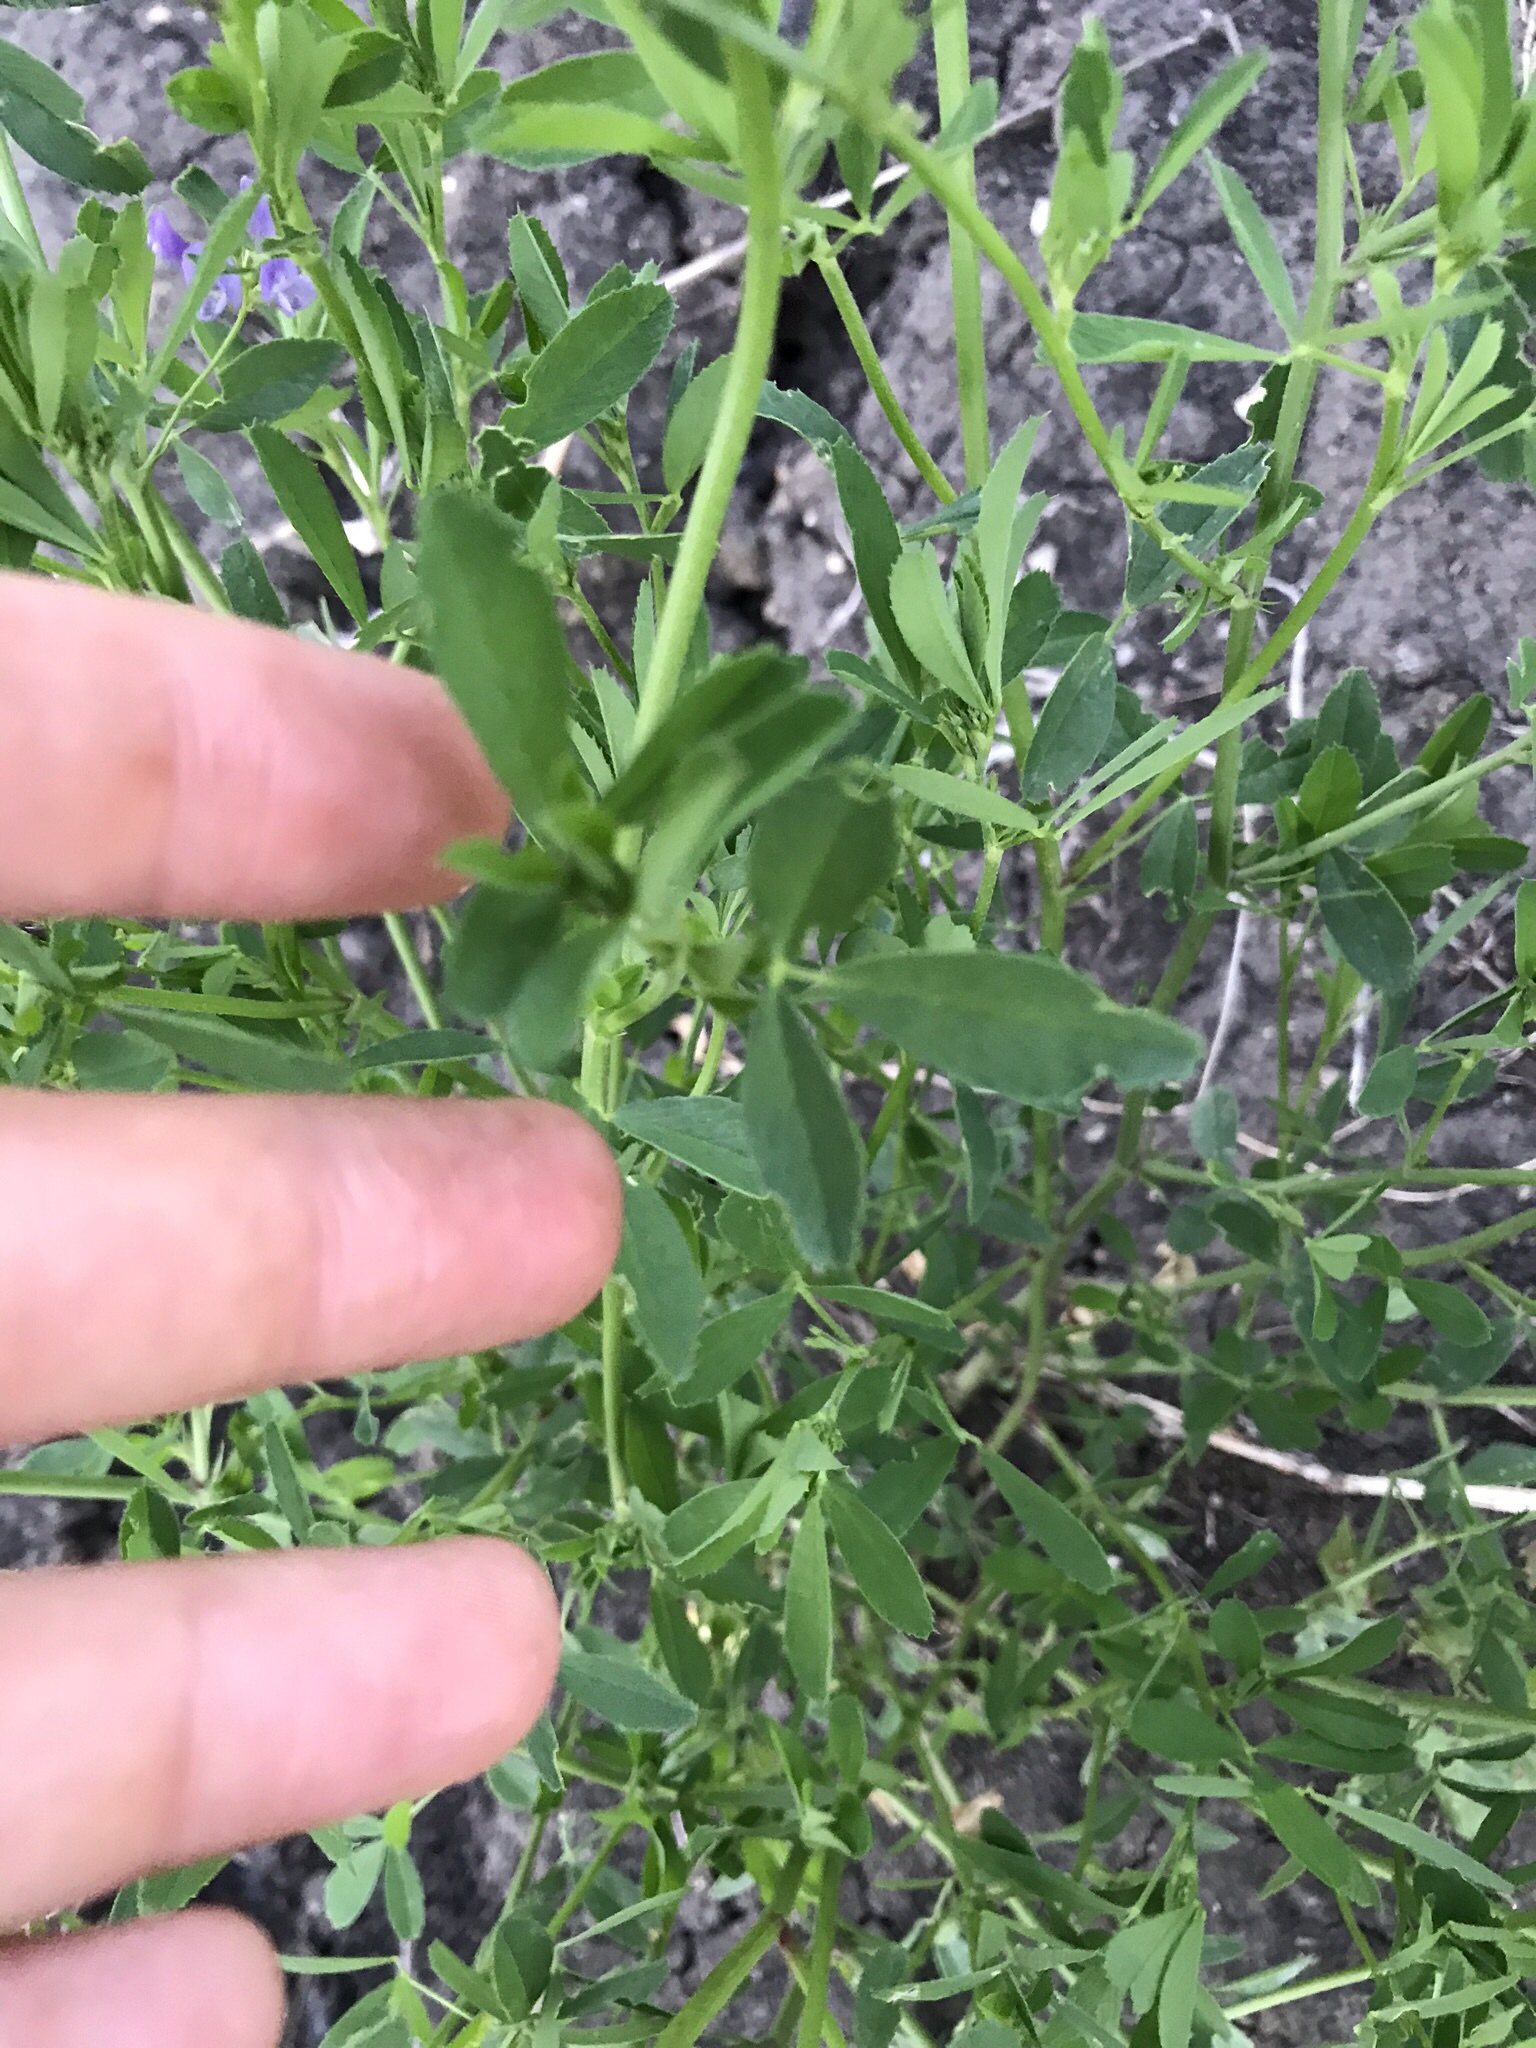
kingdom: Plantae
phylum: Tracheophyta
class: Magnoliopsida
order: Fabales
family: Fabaceae
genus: Medicago
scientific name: Medicago sativa
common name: Alfalfa
